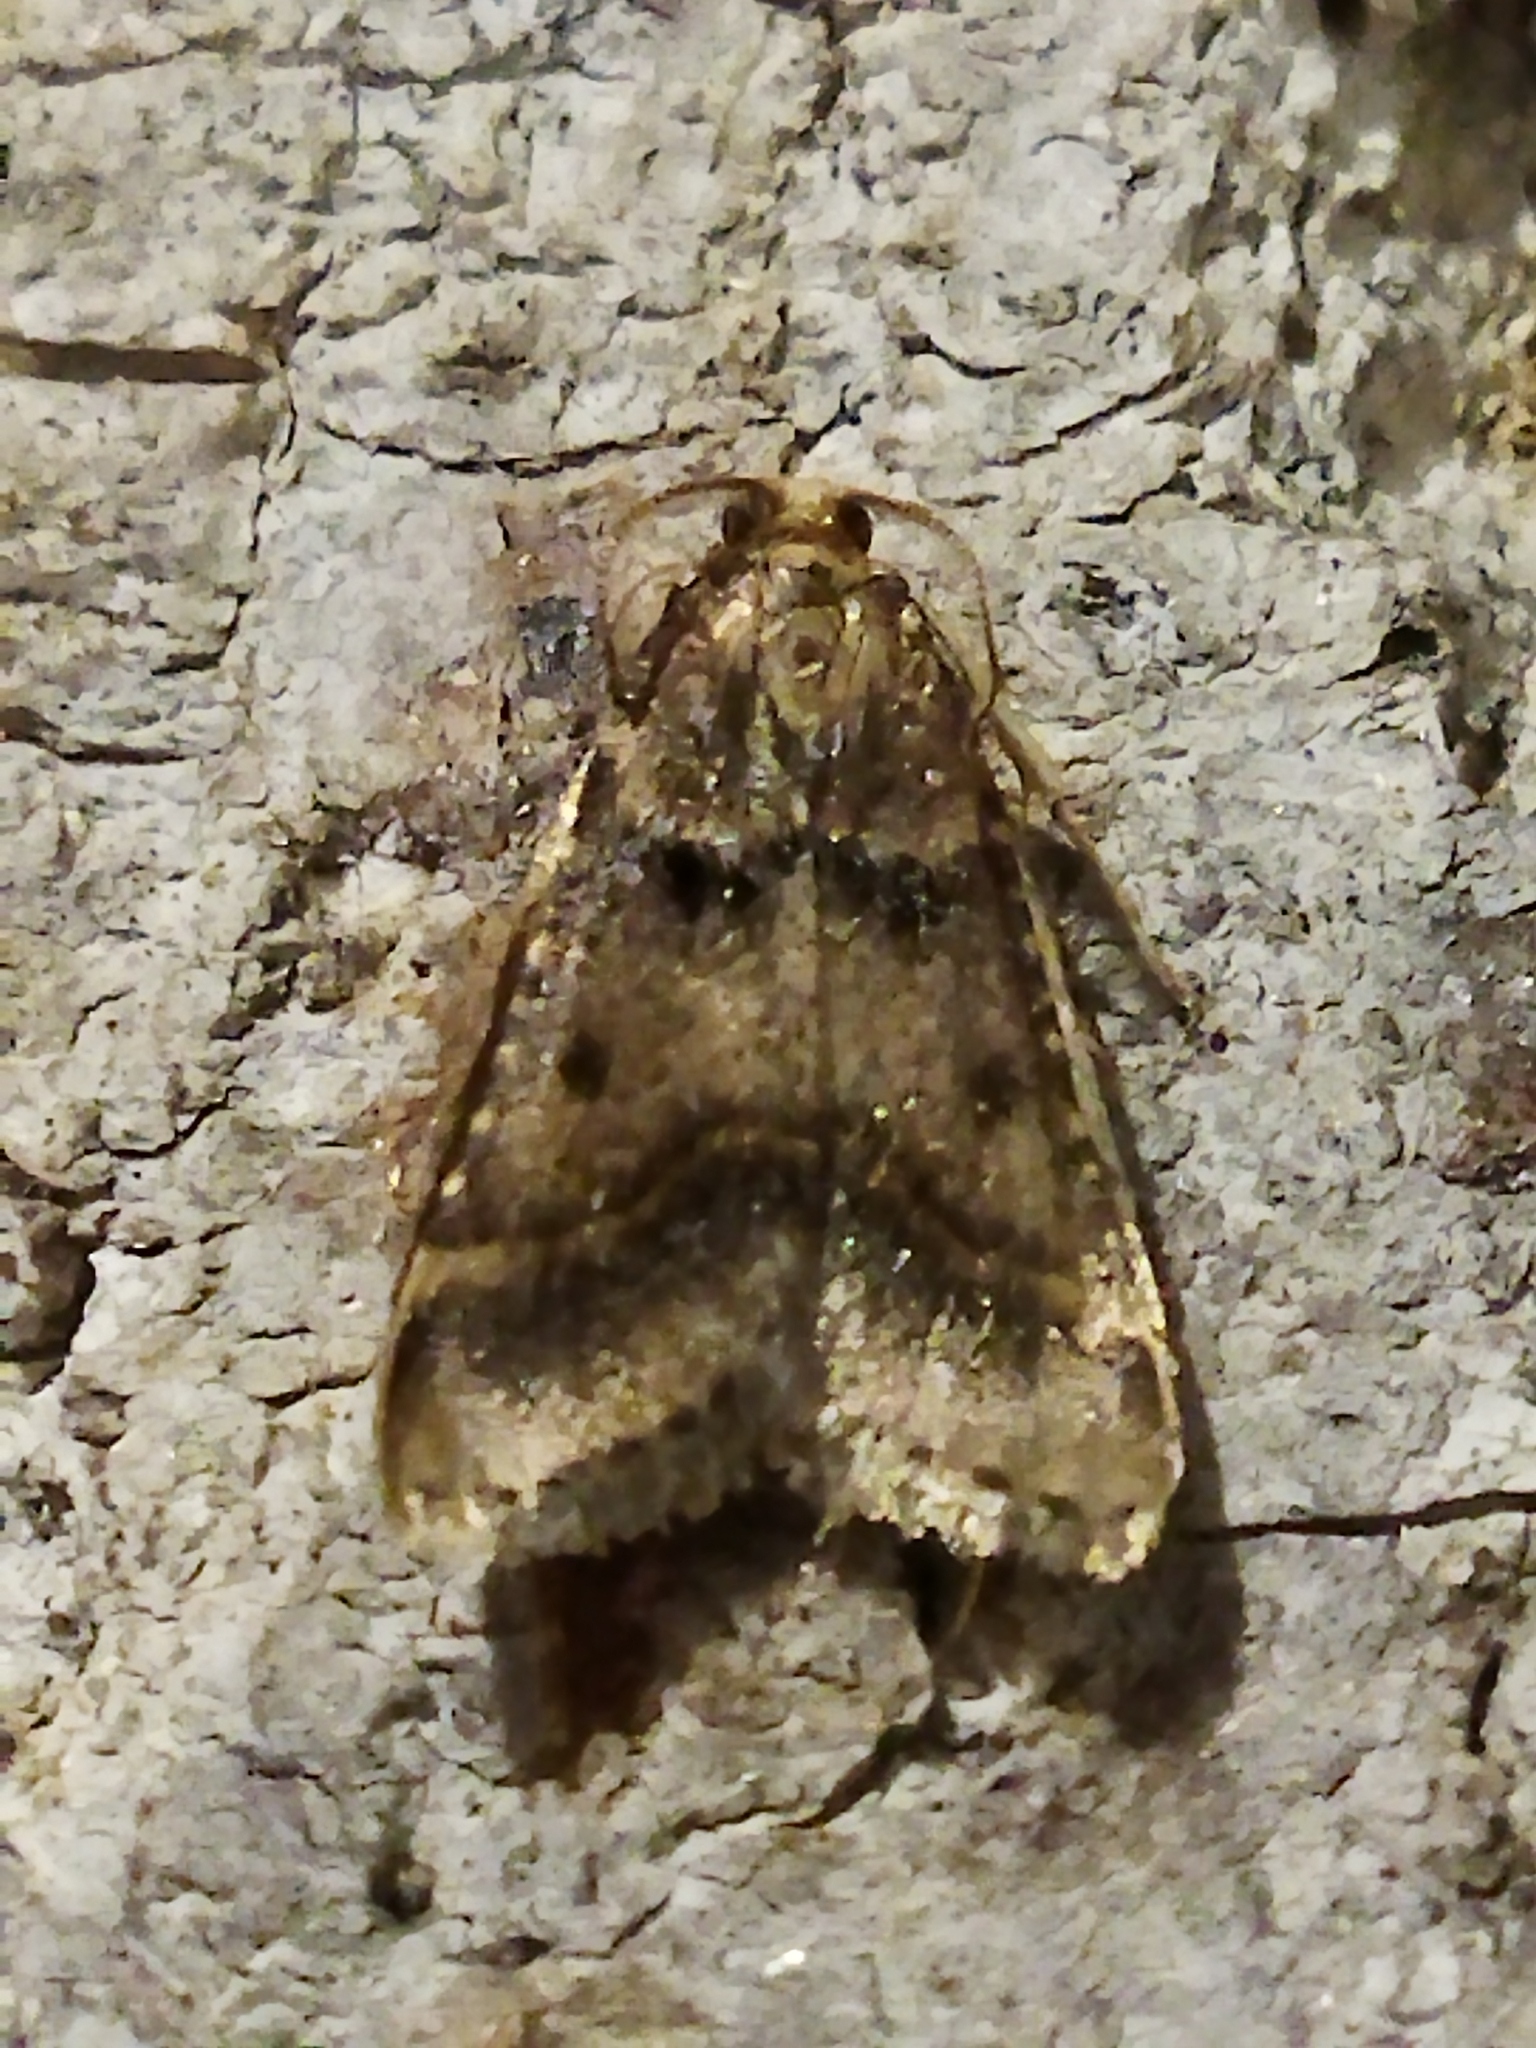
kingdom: Animalia
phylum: Arthropoda
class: Insecta
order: Lepidoptera
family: Pyralidae
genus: Stemmatophora
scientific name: Stemmatophora brunnealis
